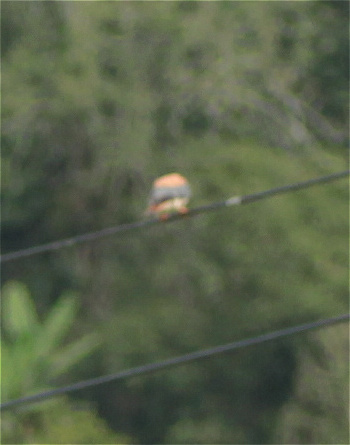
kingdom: Animalia
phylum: Chordata
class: Aves
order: Falconiformes
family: Falconidae
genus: Falco
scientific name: Falco sparverius
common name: American kestrel
